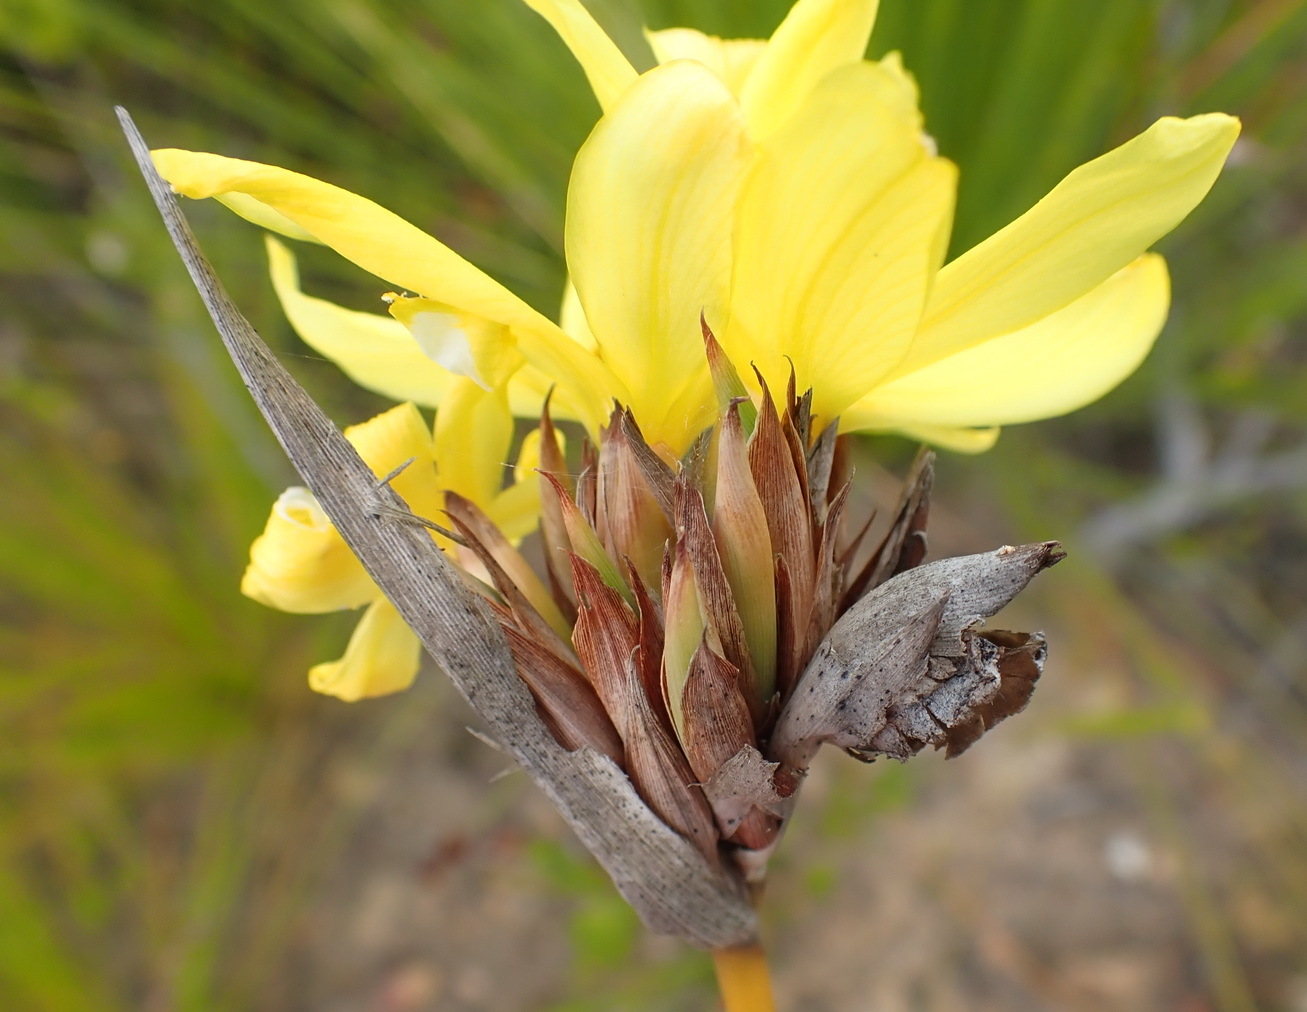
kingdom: Plantae
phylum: Tracheophyta
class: Liliopsida
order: Asparagales
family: Iridaceae
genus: Bobartia
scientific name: Bobartia macrospatha
